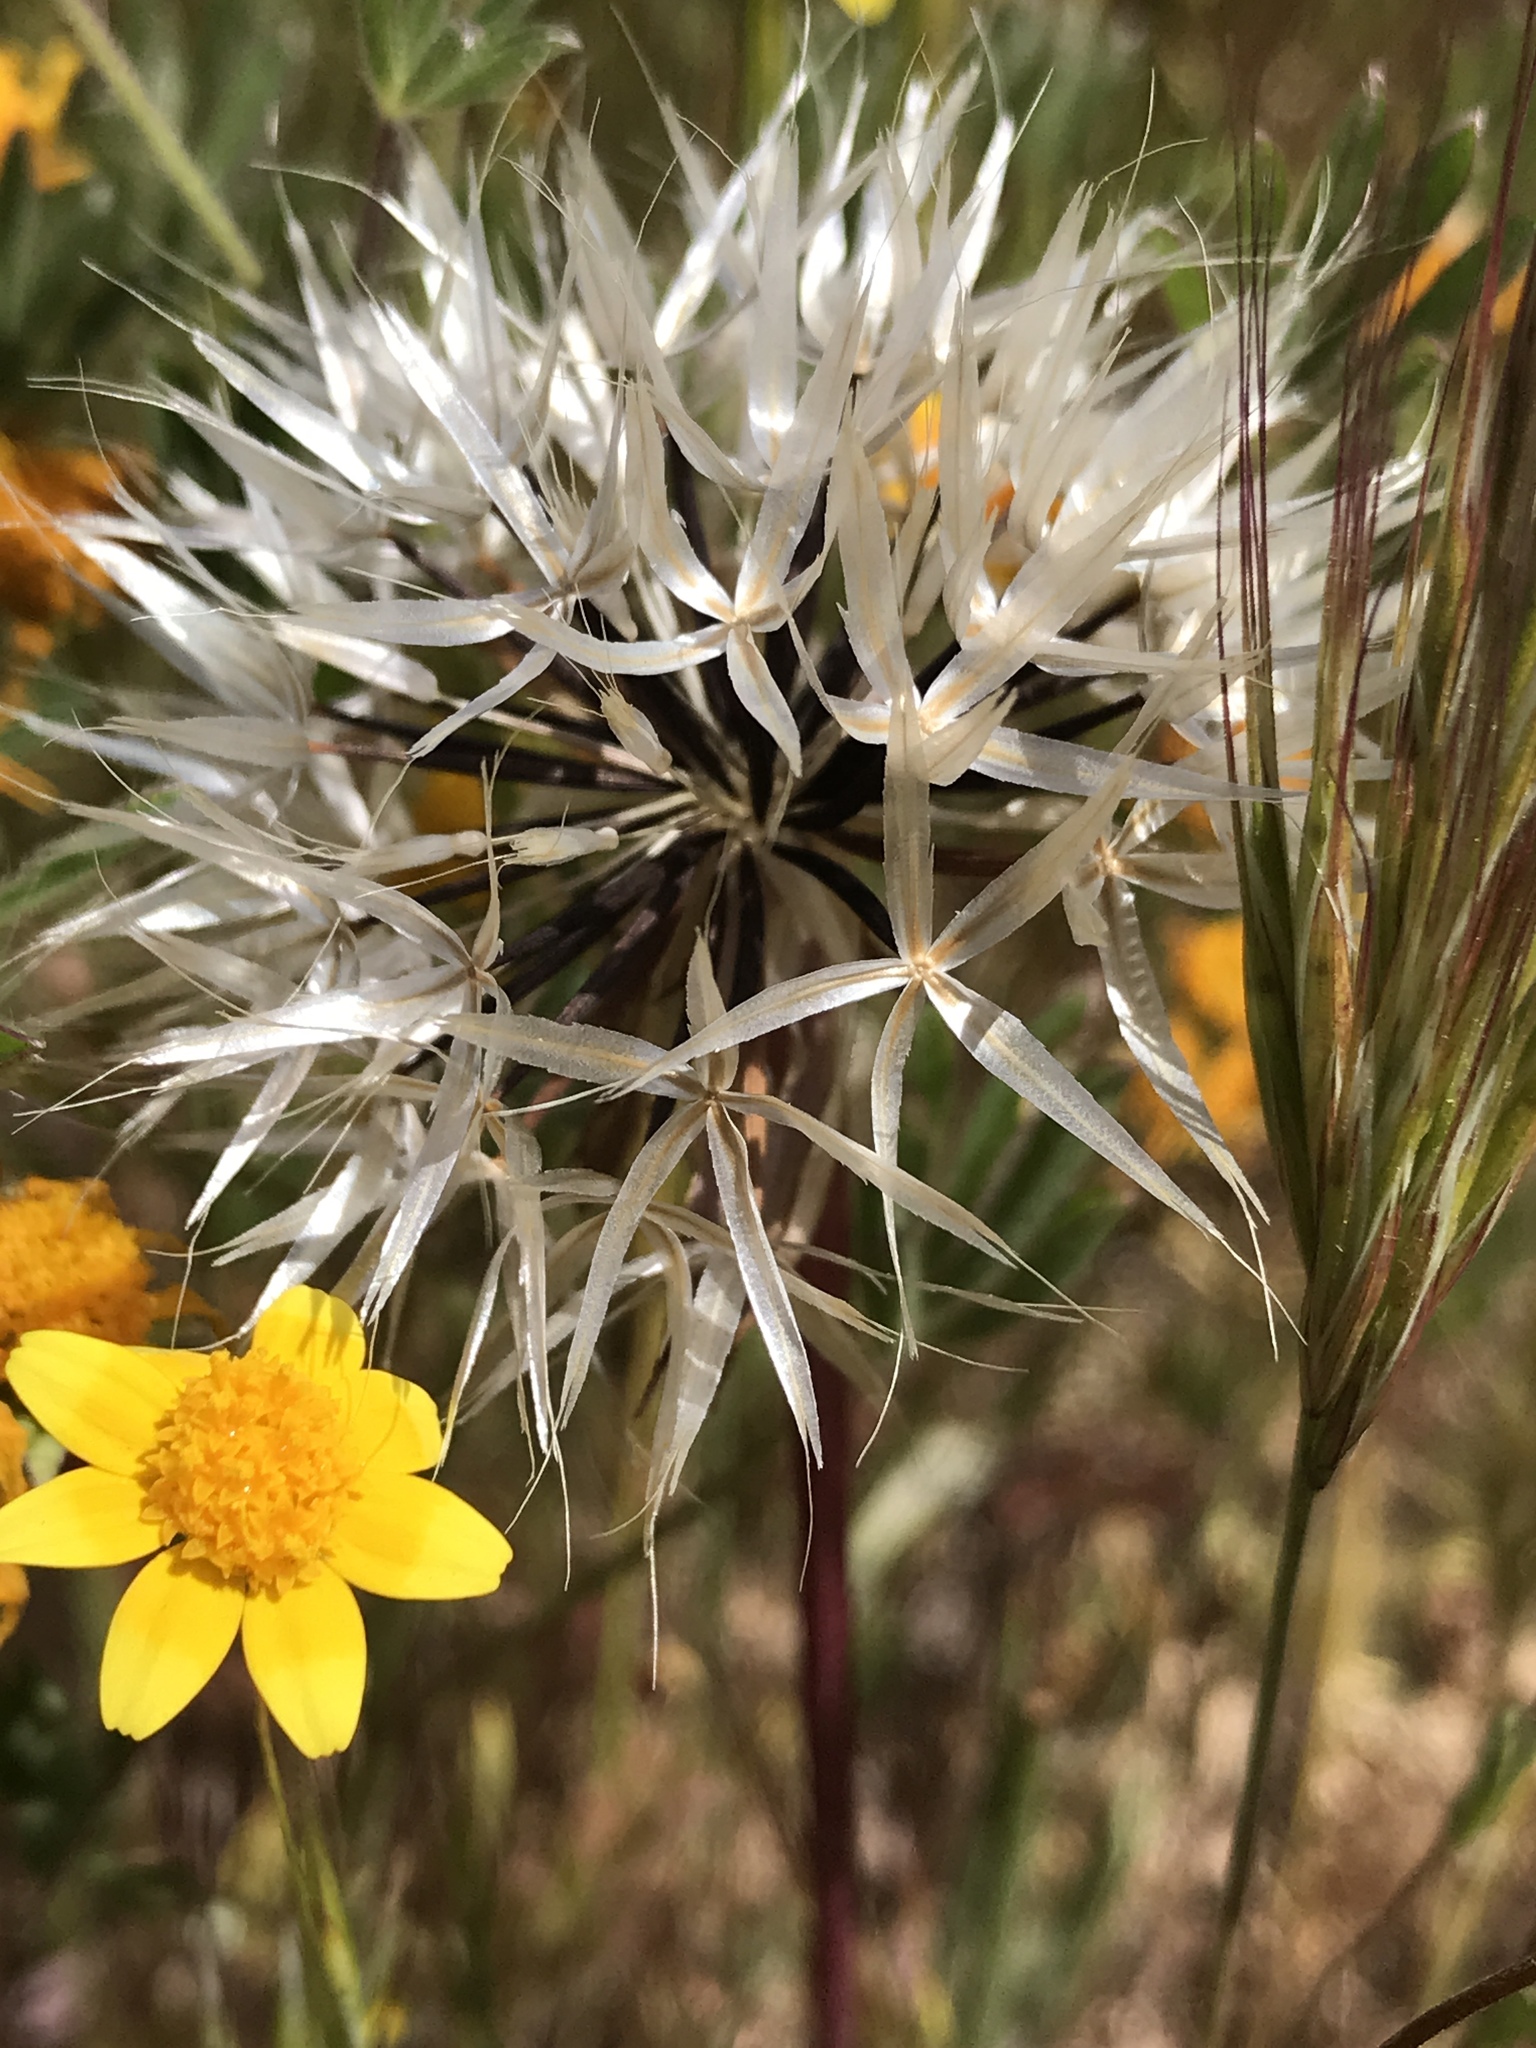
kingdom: Plantae
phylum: Tracheophyta
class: Magnoliopsida
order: Asterales
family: Asteraceae
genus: Microseris
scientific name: Microseris lindleyi
